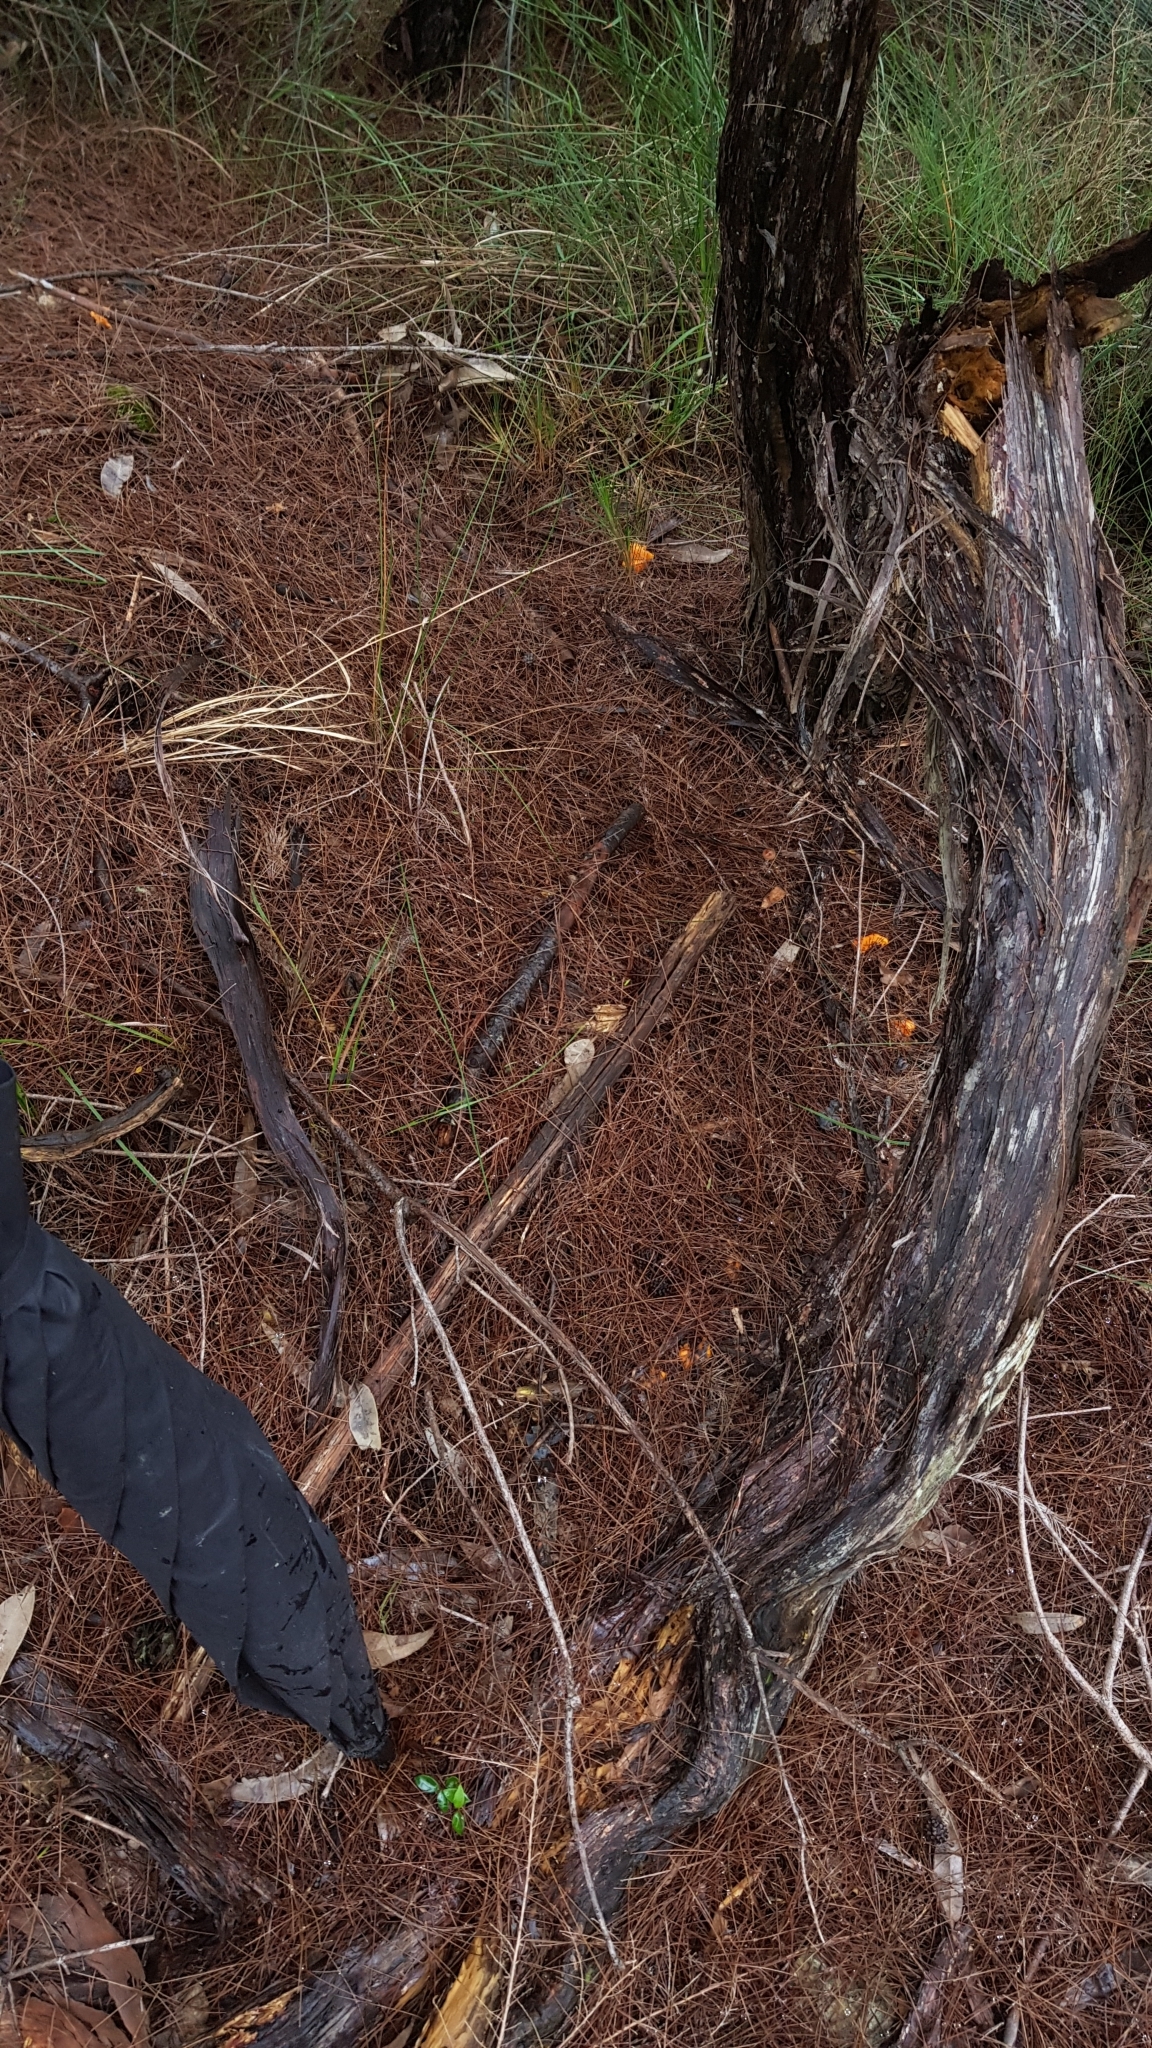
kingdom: Fungi
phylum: Basidiomycota
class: Agaricomycetes
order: Cantharellales
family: Hydnaceae
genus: Cantharellus
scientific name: Cantharellus
